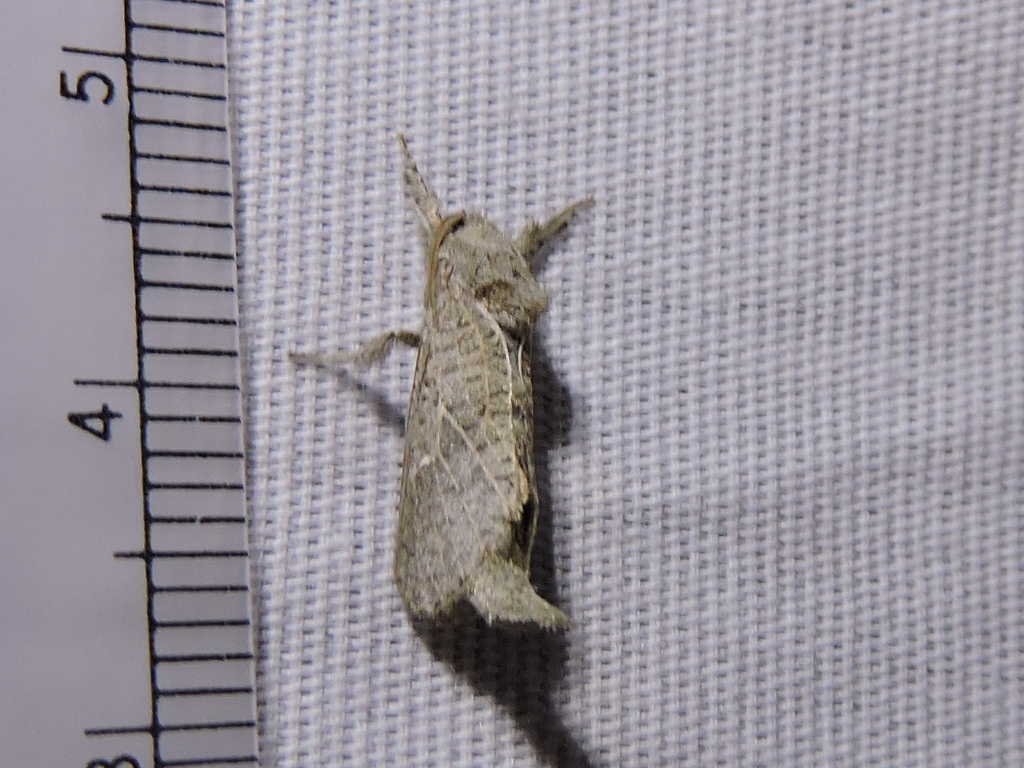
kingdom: Animalia
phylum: Arthropoda
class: Insecta
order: Lepidoptera
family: Cossidae
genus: Givira
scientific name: Givira anna
